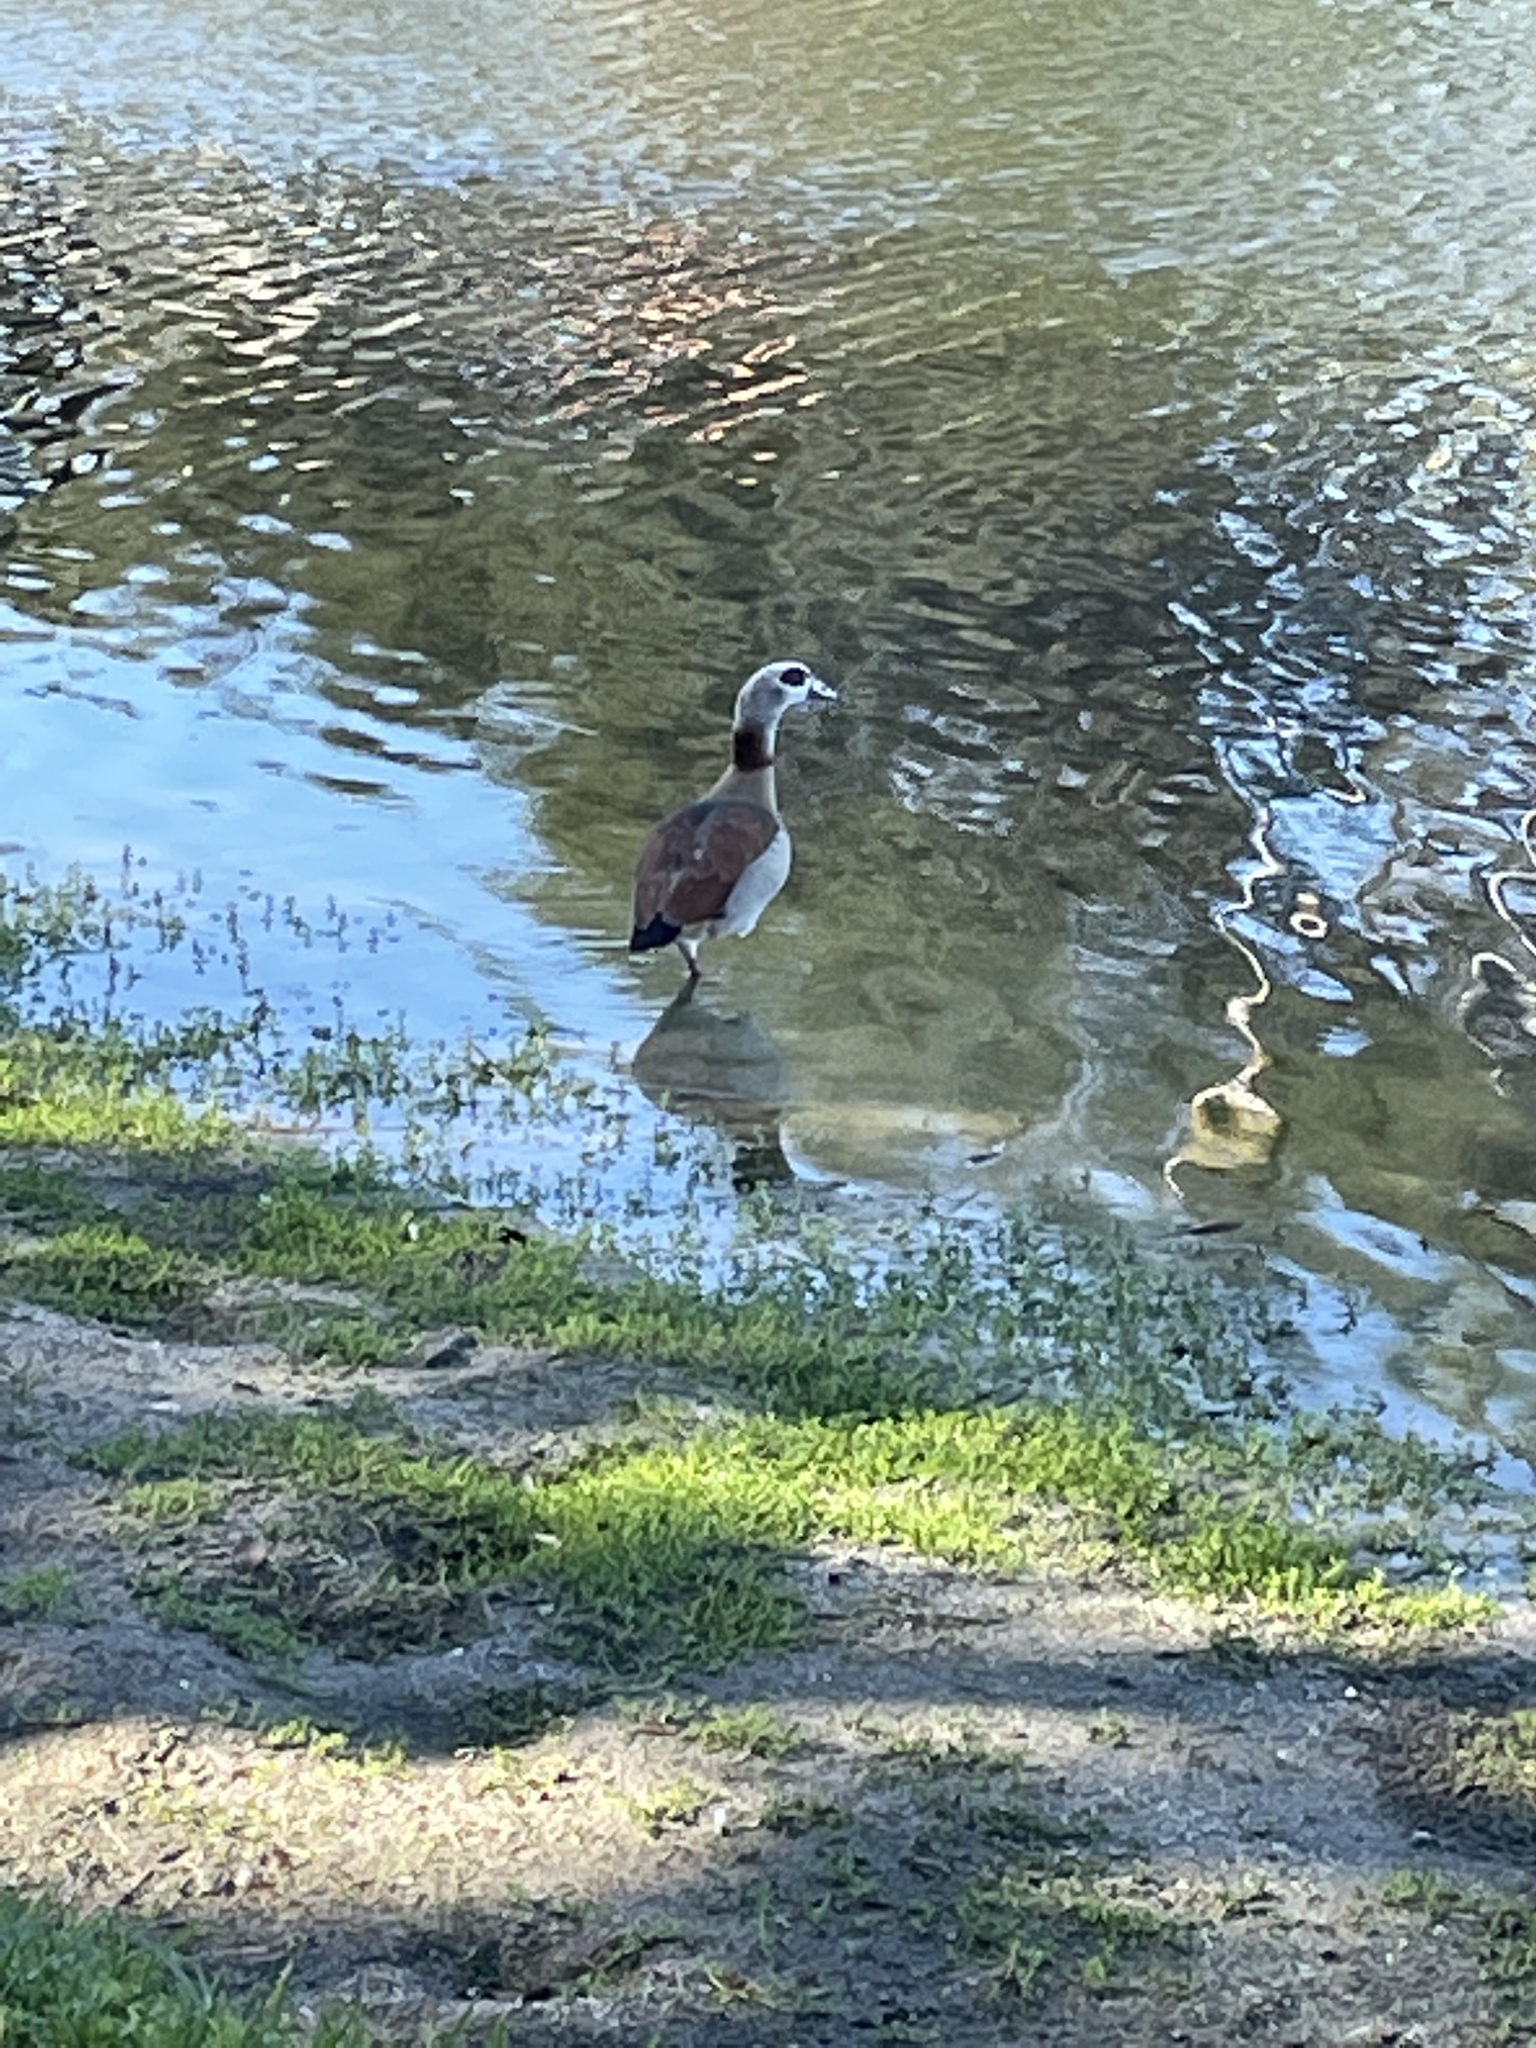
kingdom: Animalia
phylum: Chordata
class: Aves
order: Anseriformes
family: Anatidae
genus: Alopochen
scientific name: Alopochen aegyptiaca
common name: Egyptian goose
